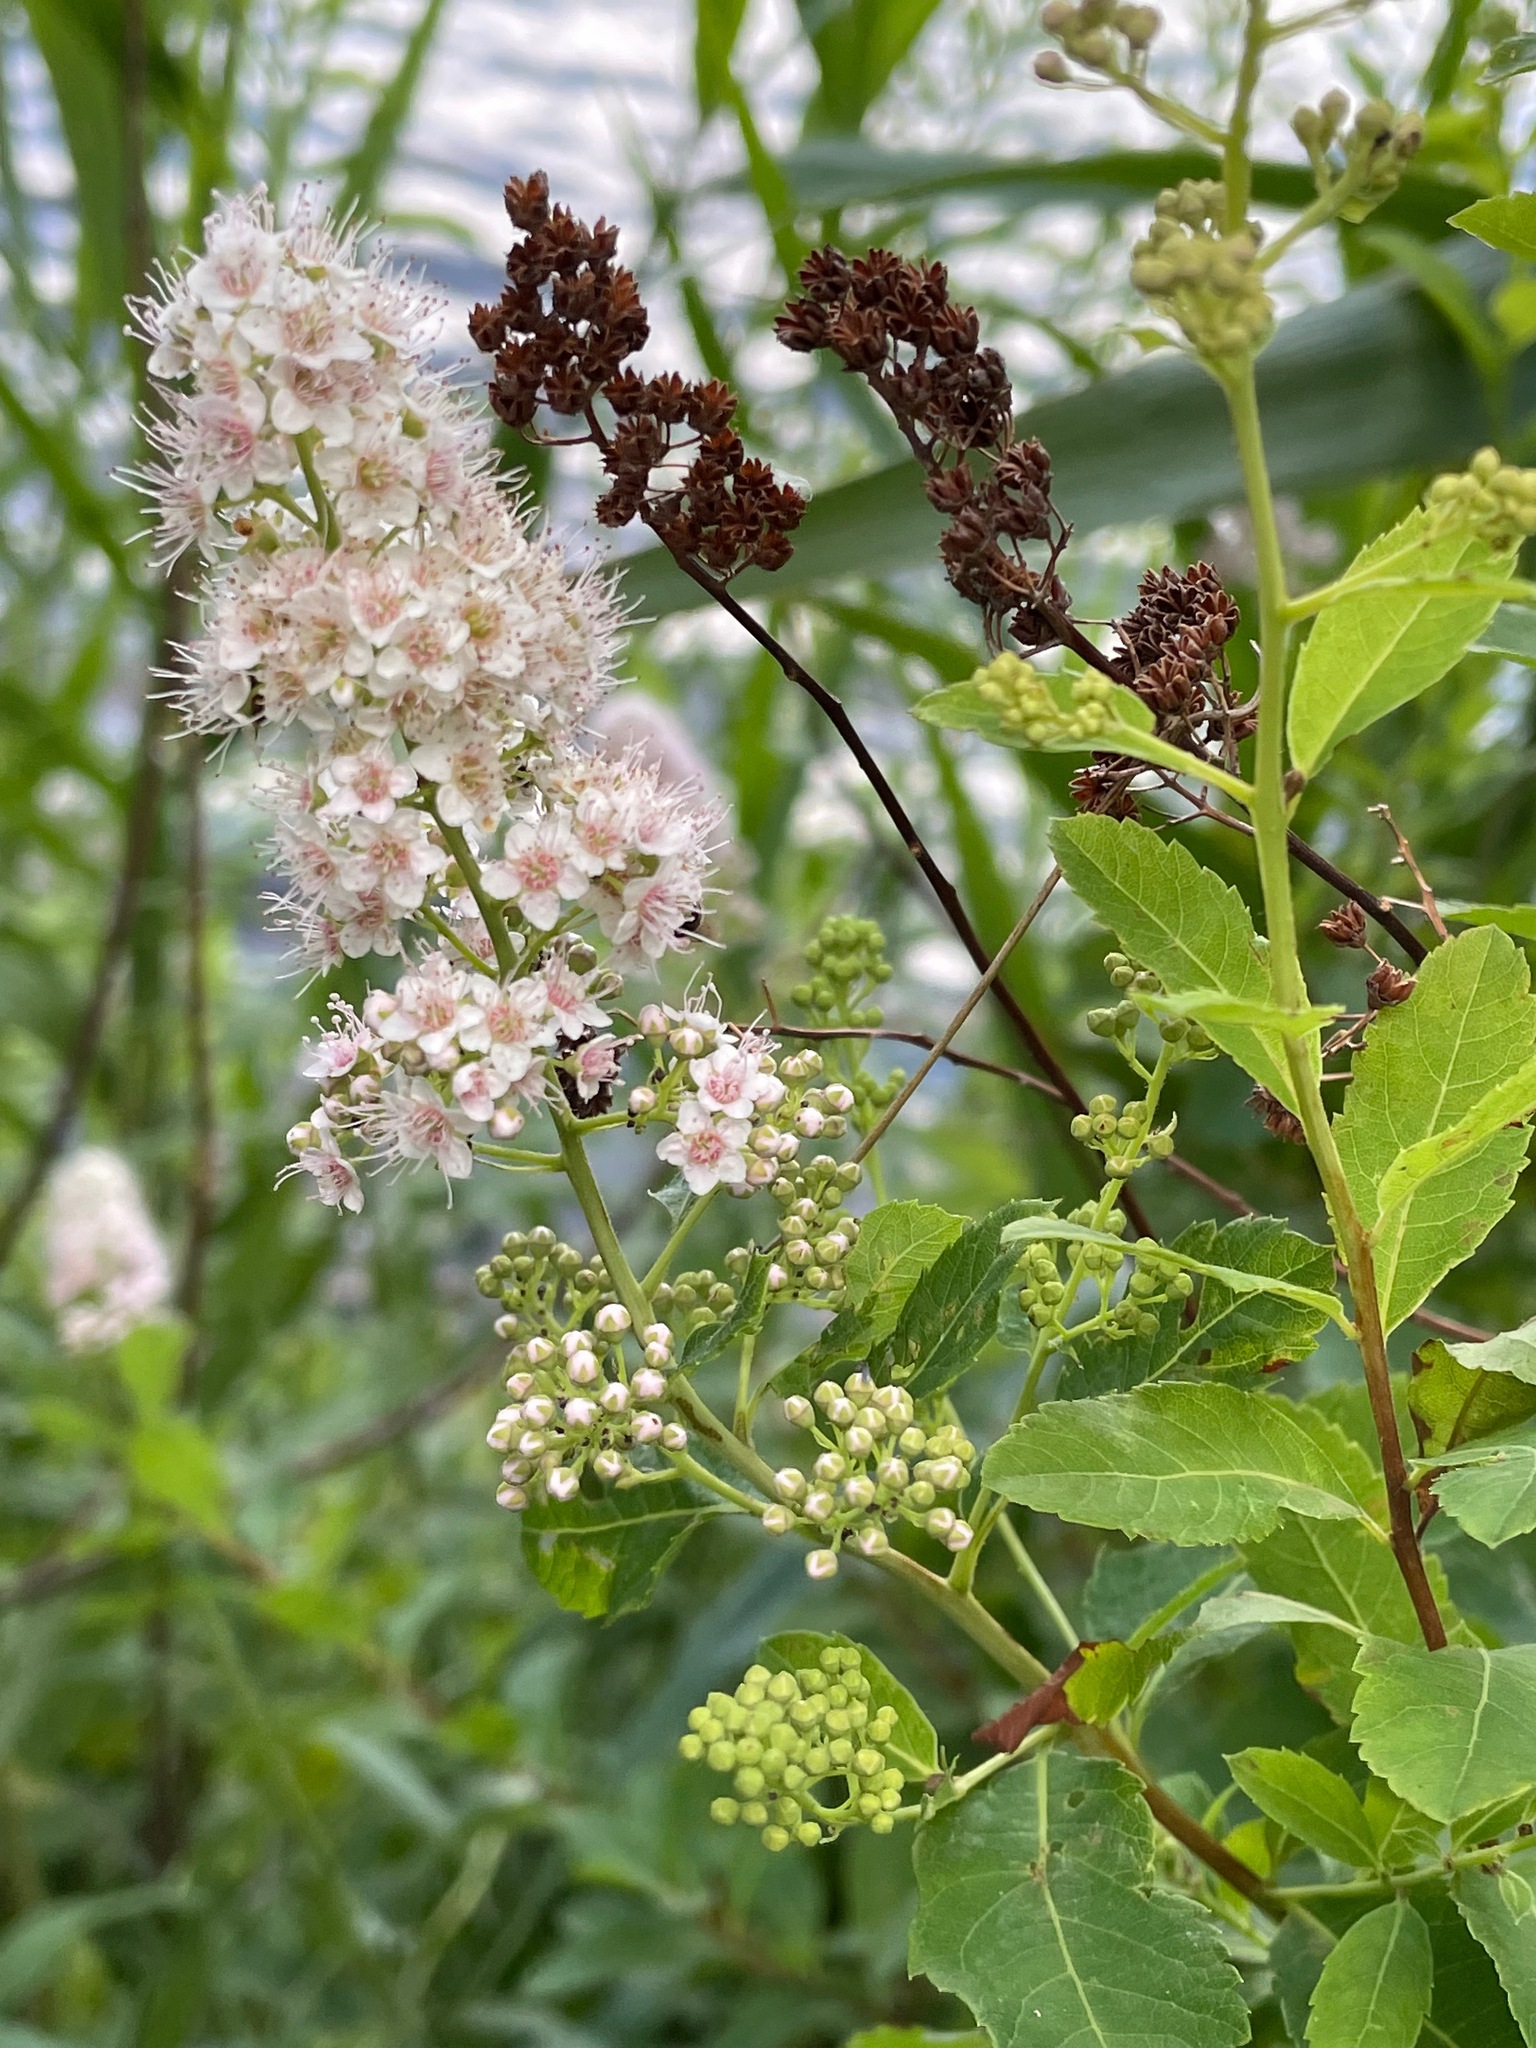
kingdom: Plantae
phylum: Tracheophyta
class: Magnoliopsida
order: Rosales
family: Rosaceae
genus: Spiraea
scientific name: Spiraea alba
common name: Pale bridewort
